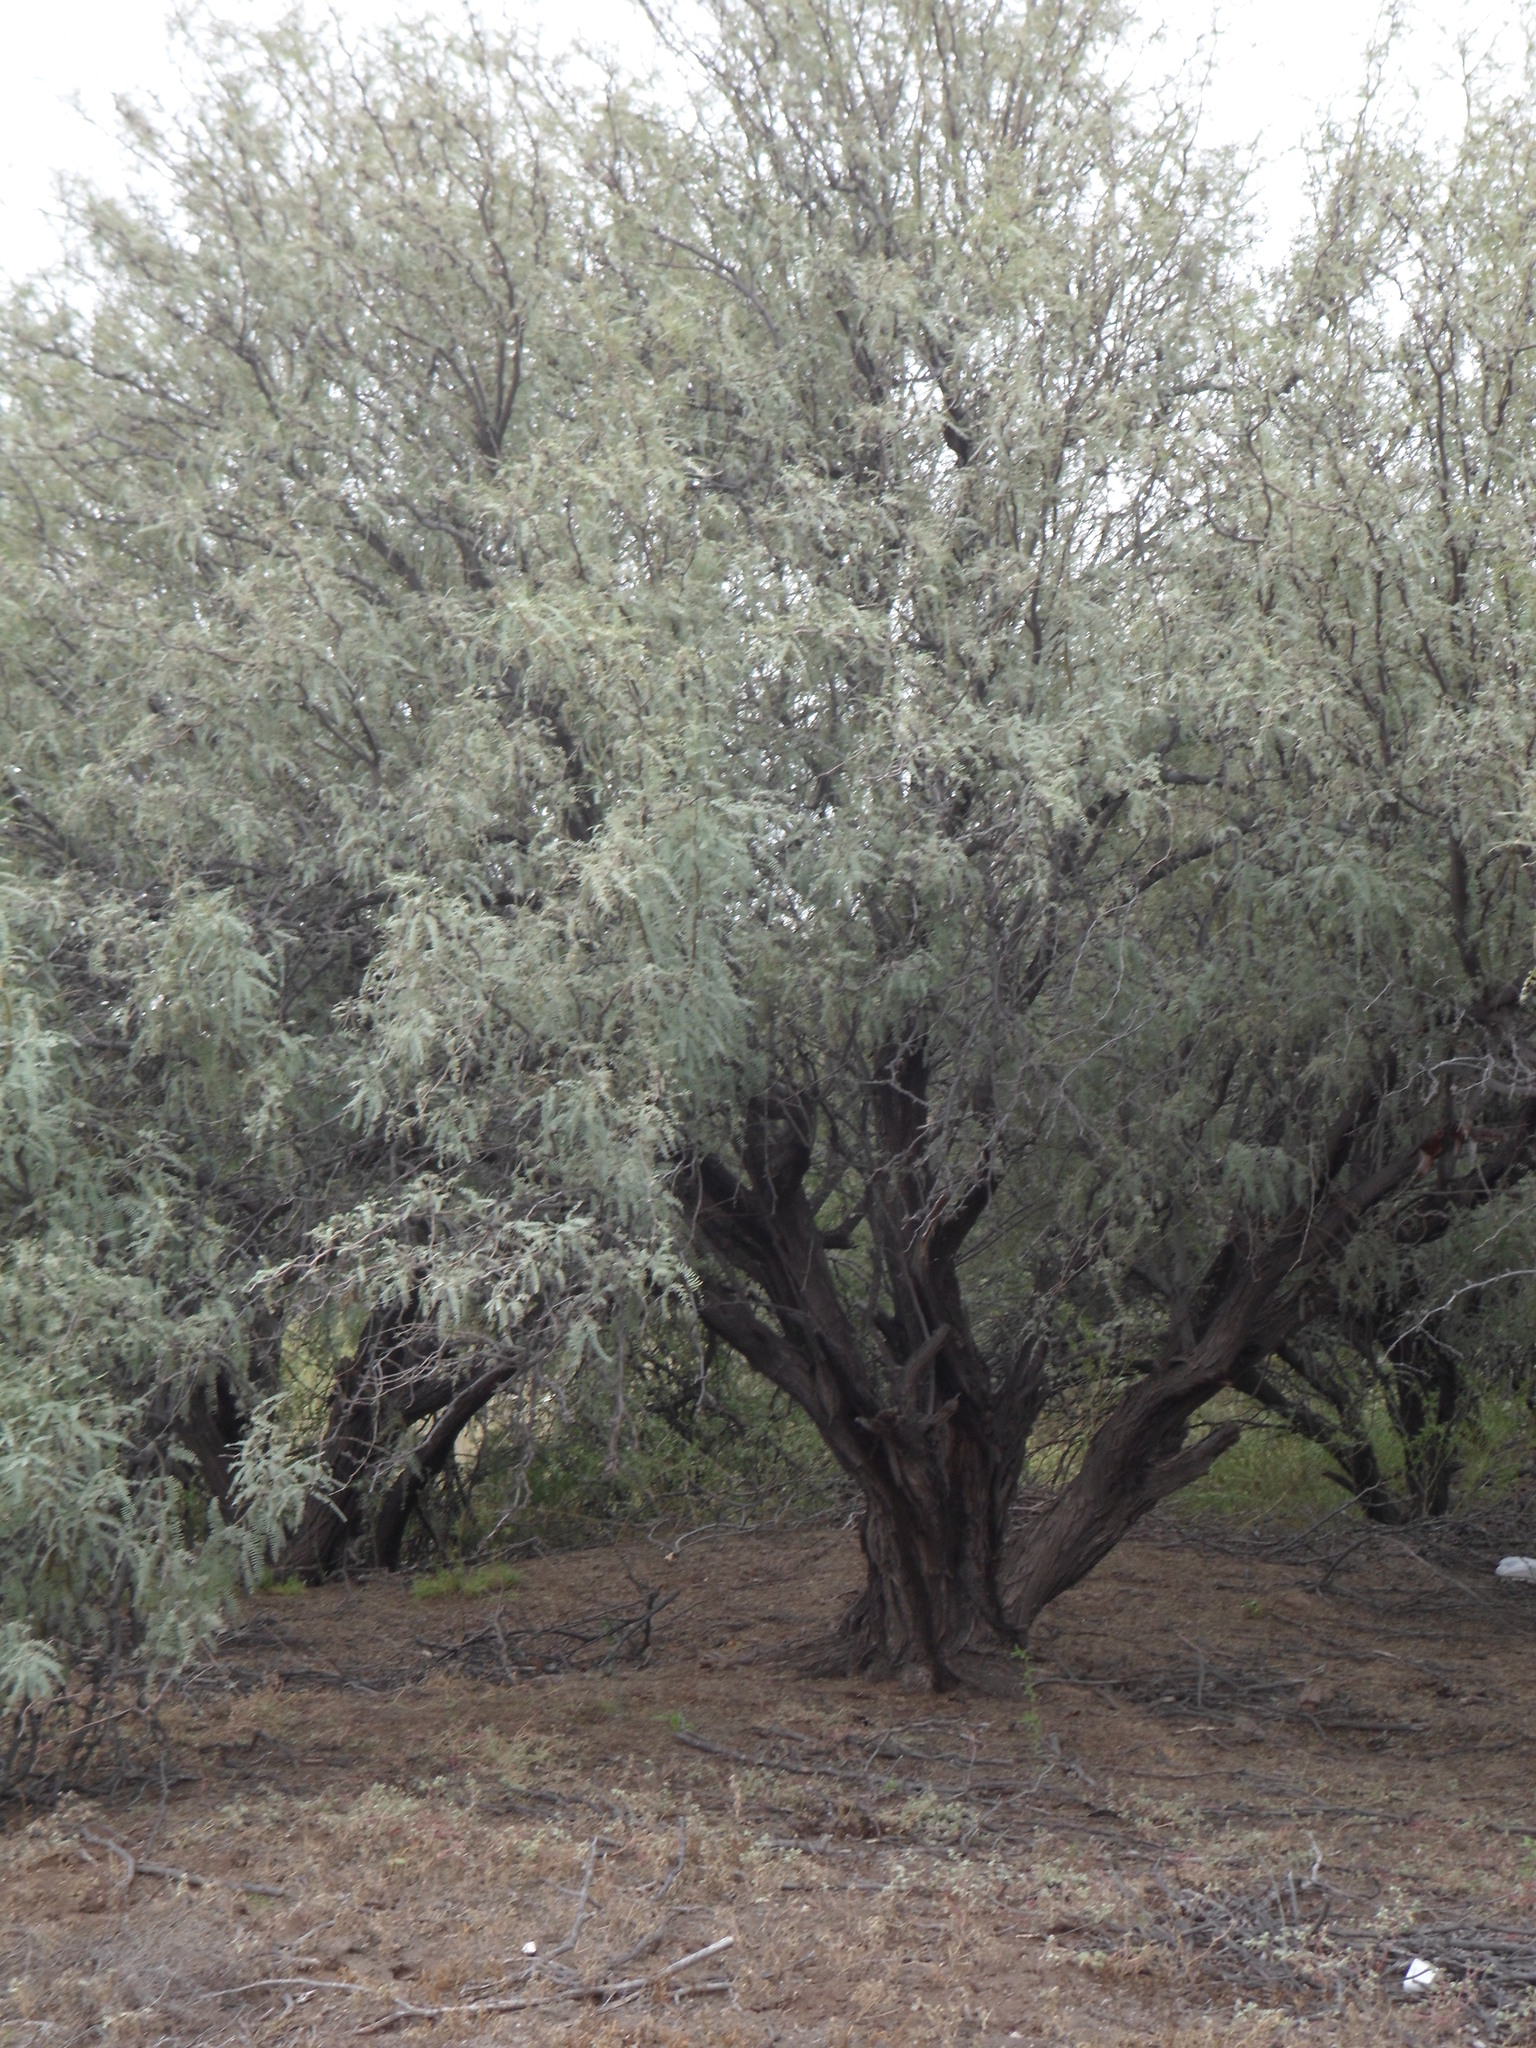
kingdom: Plantae
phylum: Tracheophyta
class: Magnoliopsida
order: Fabales
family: Fabaceae
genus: Prosopis
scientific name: Prosopis glandulosa
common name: Honey mesquite
